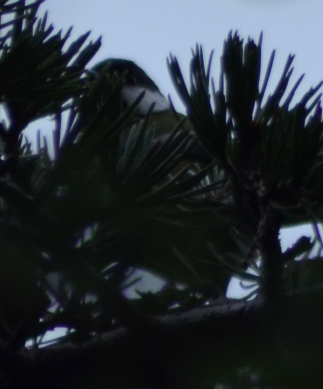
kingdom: Animalia
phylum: Chordata
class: Aves
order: Passeriformes
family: Paridae
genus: Parus
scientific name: Parus major
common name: Great tit
